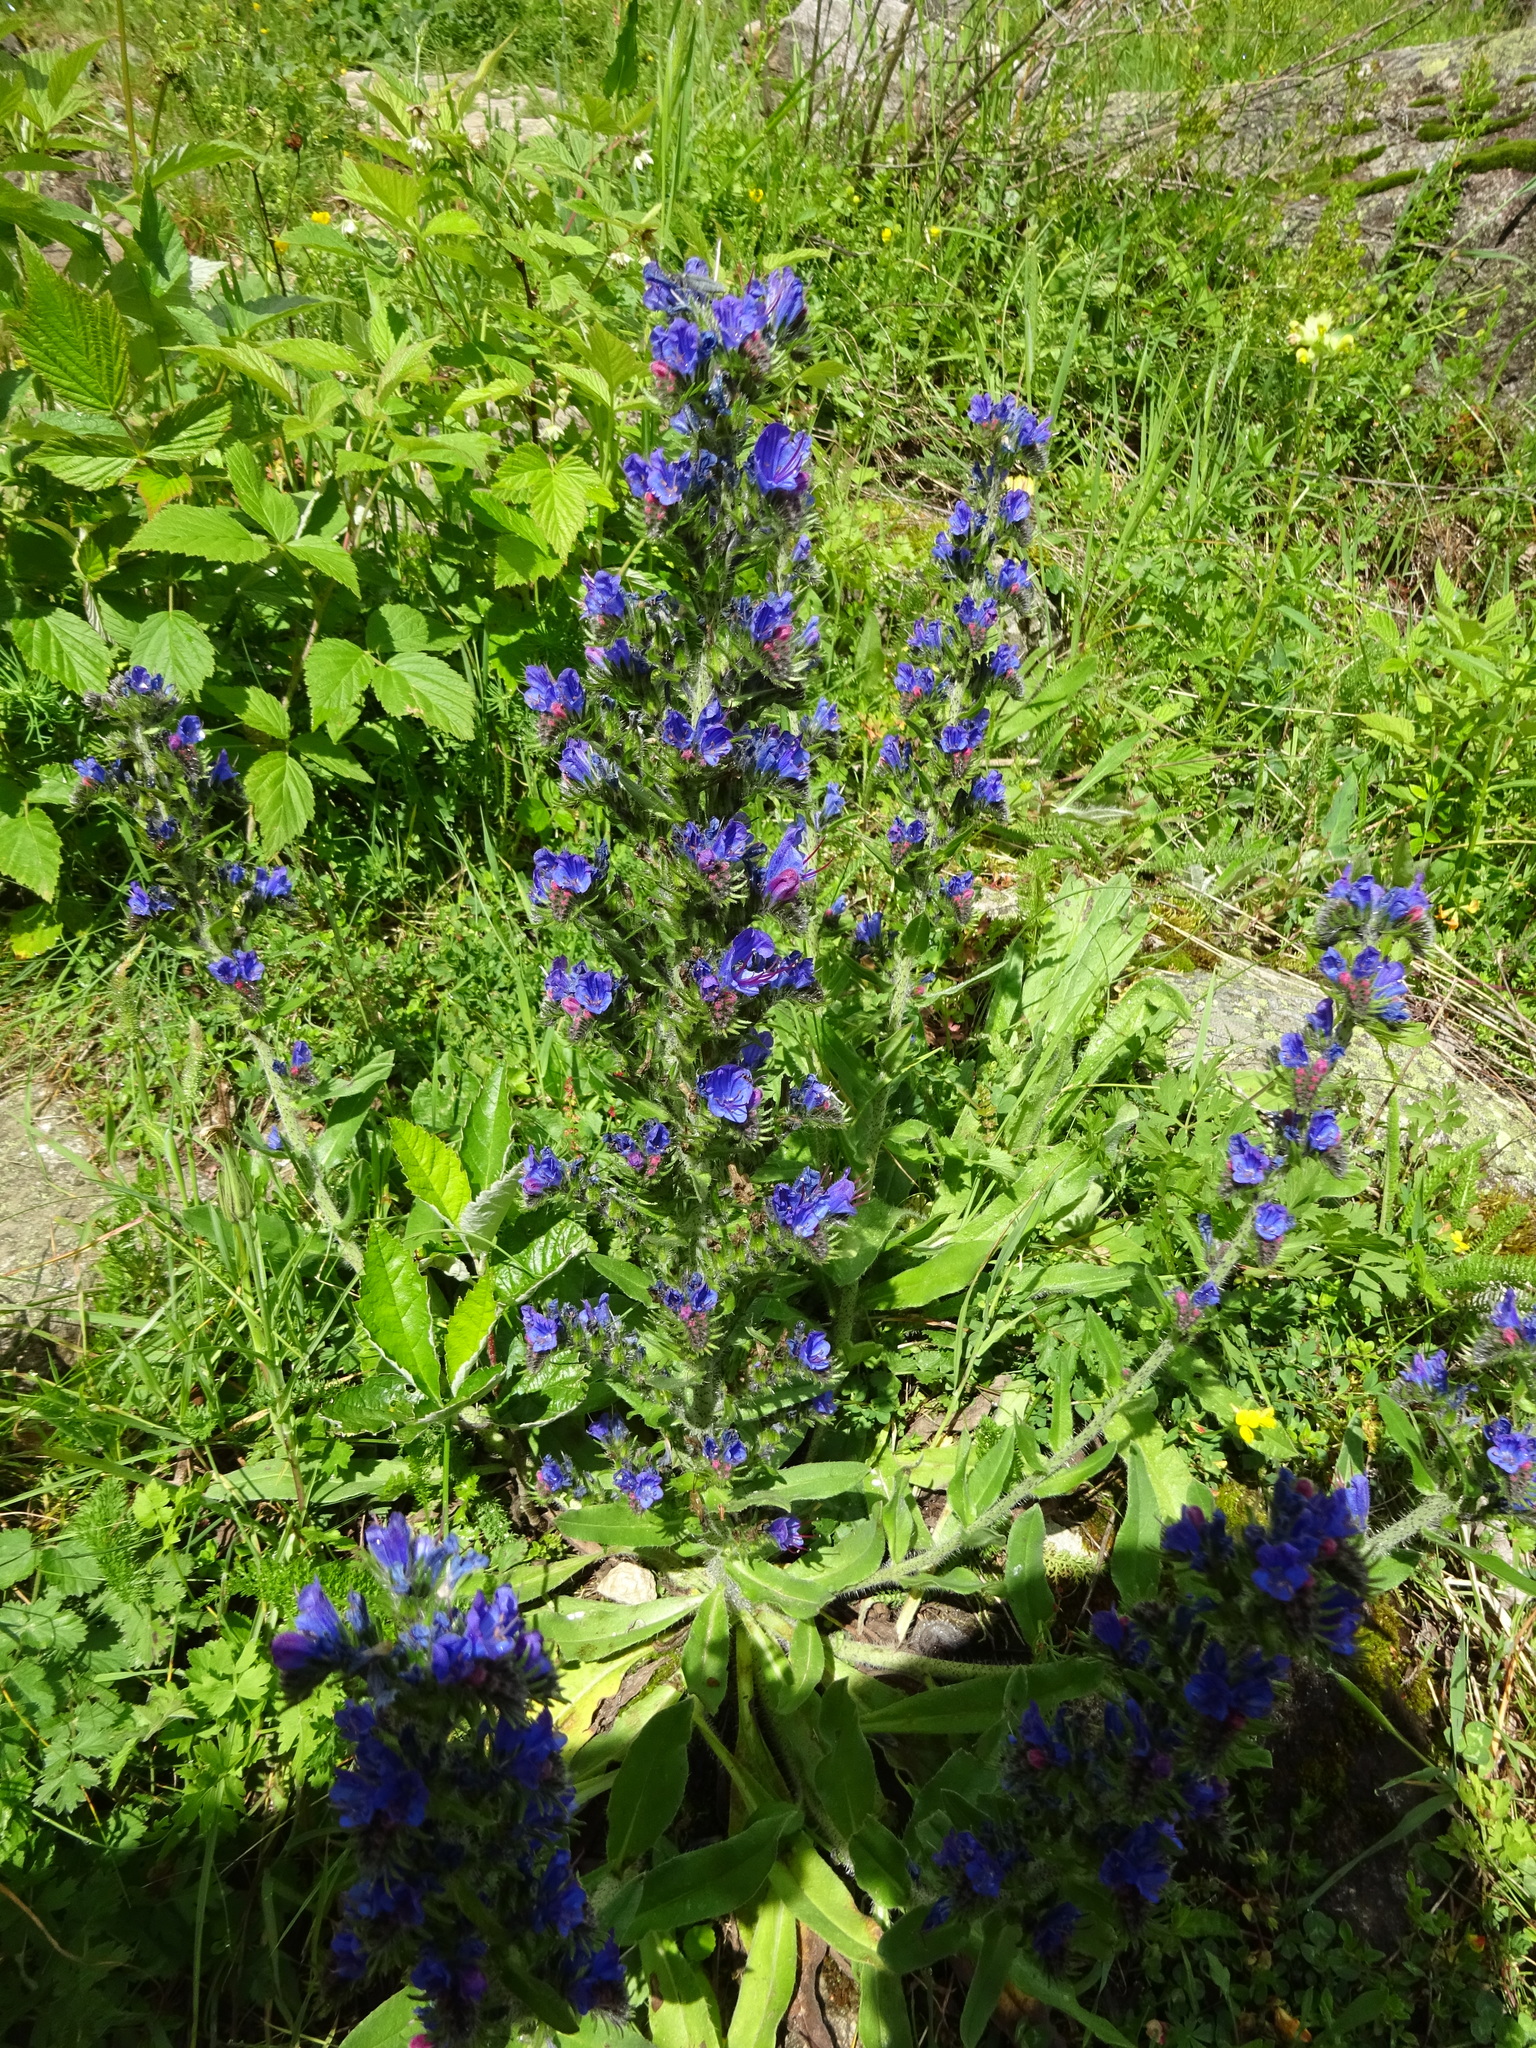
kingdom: Plantae
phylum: Tracheophyta
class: Magnoliopsida
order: Boraginales
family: Boraginaceae
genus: Echium
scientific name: Echium vulgare
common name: Common viper's bugloss
